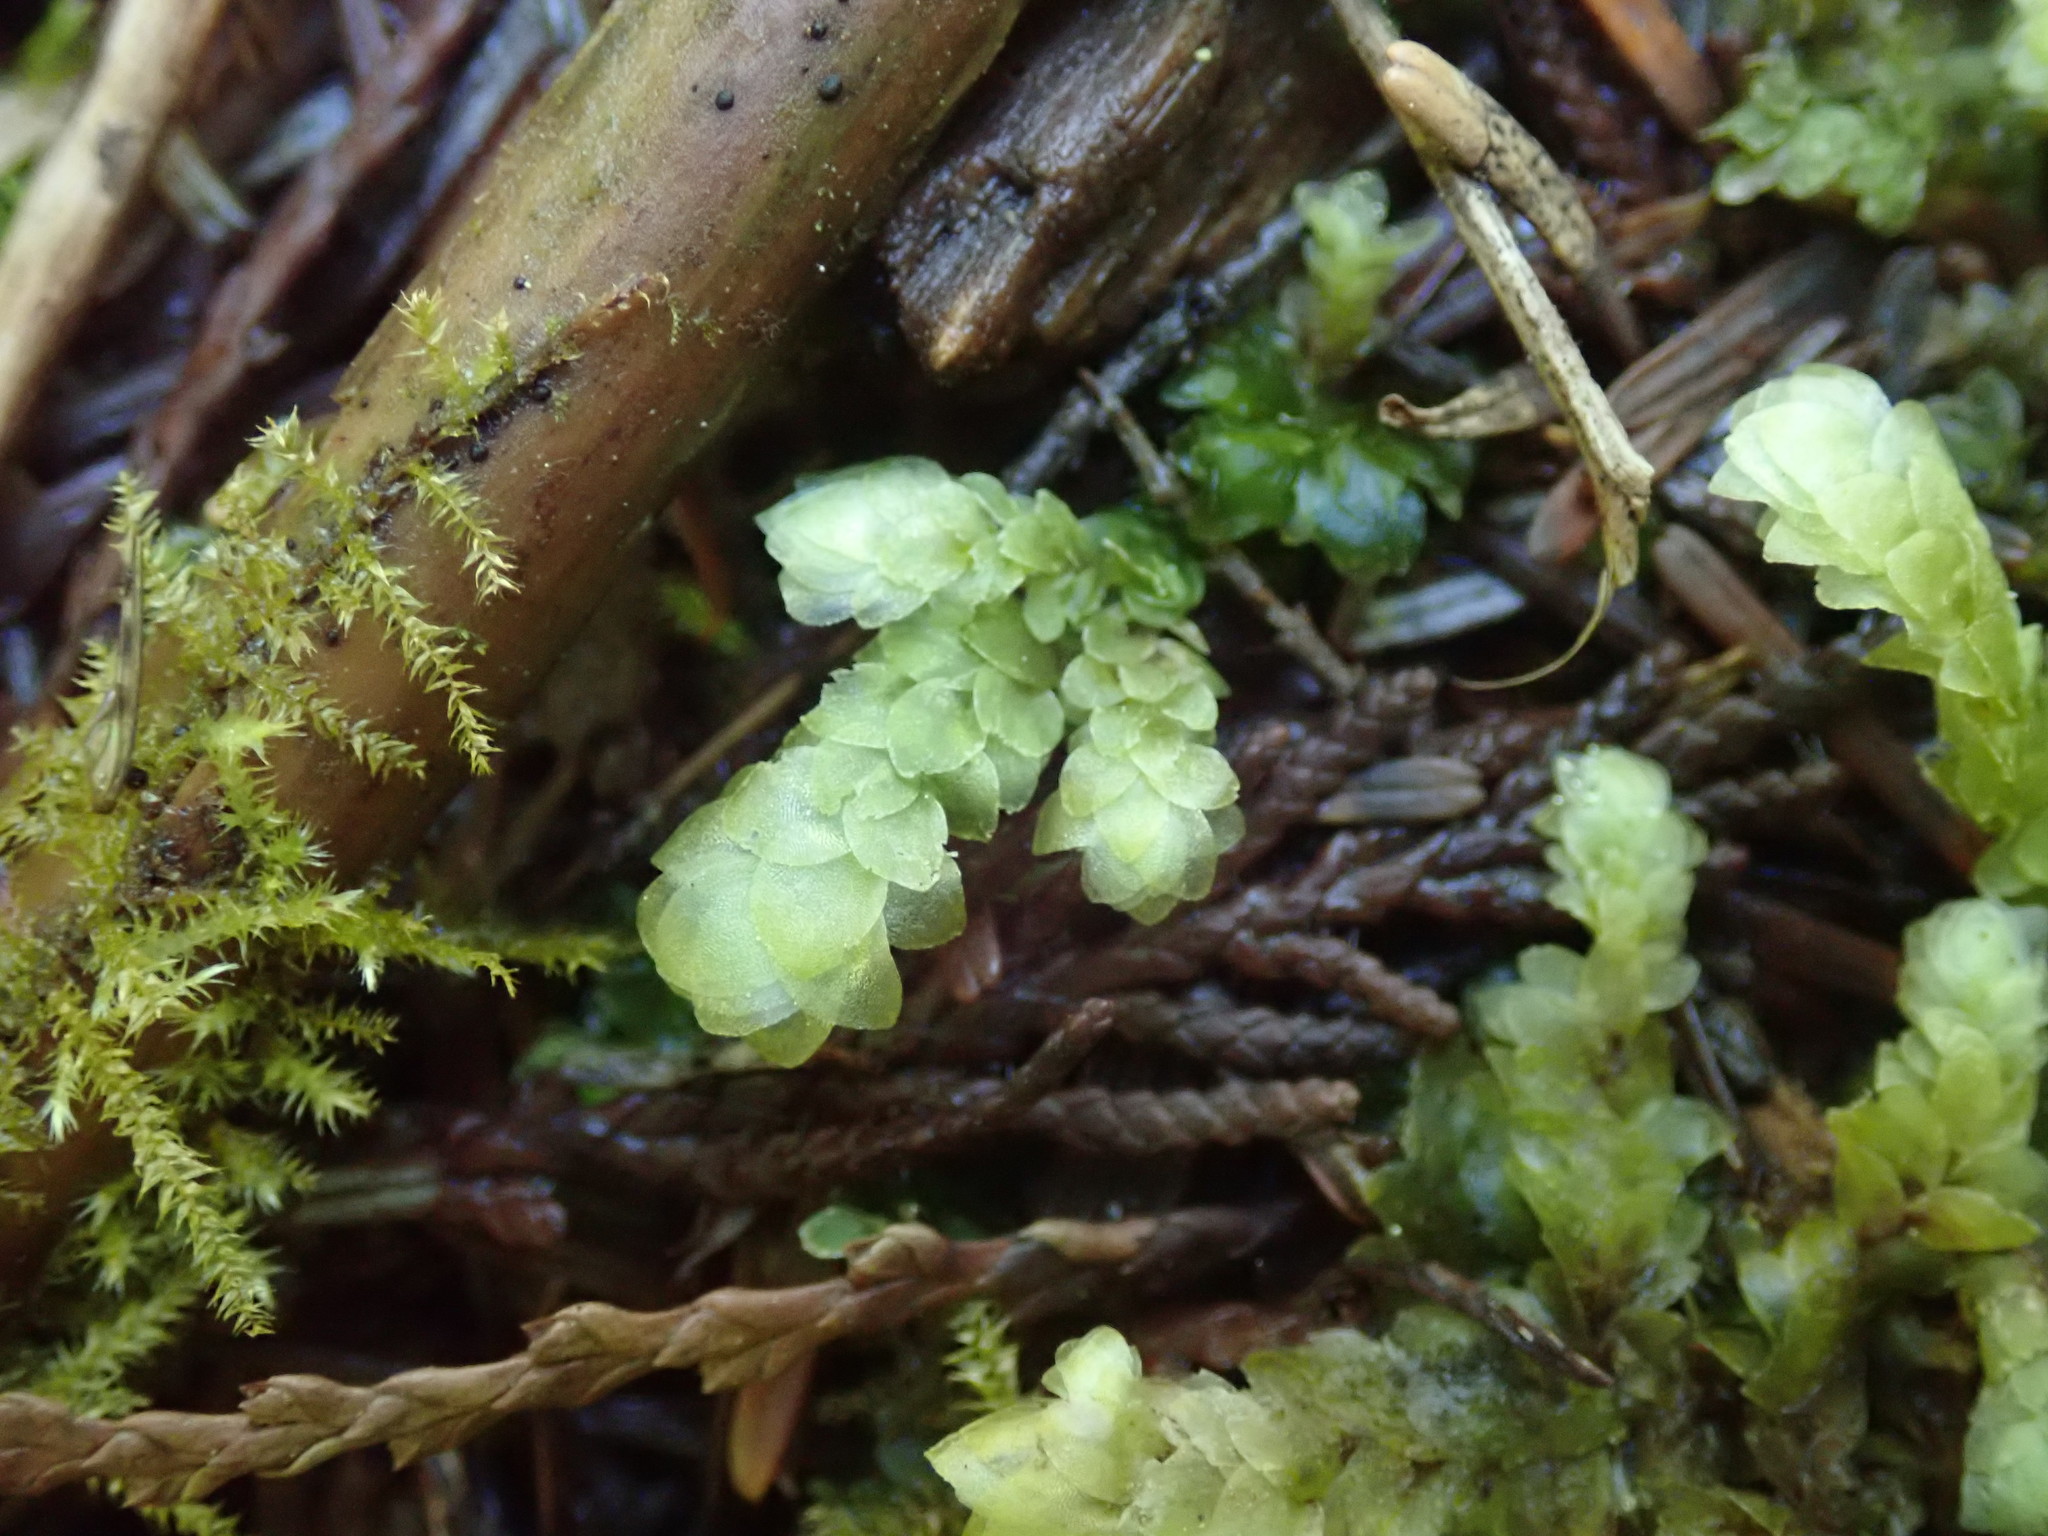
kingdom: Plantae
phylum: Bryophyta
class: Bryopsida
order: Hookeriales
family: Hookeriaceae
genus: Hookeria
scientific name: Hookeria lucens
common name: Shining hookeria
